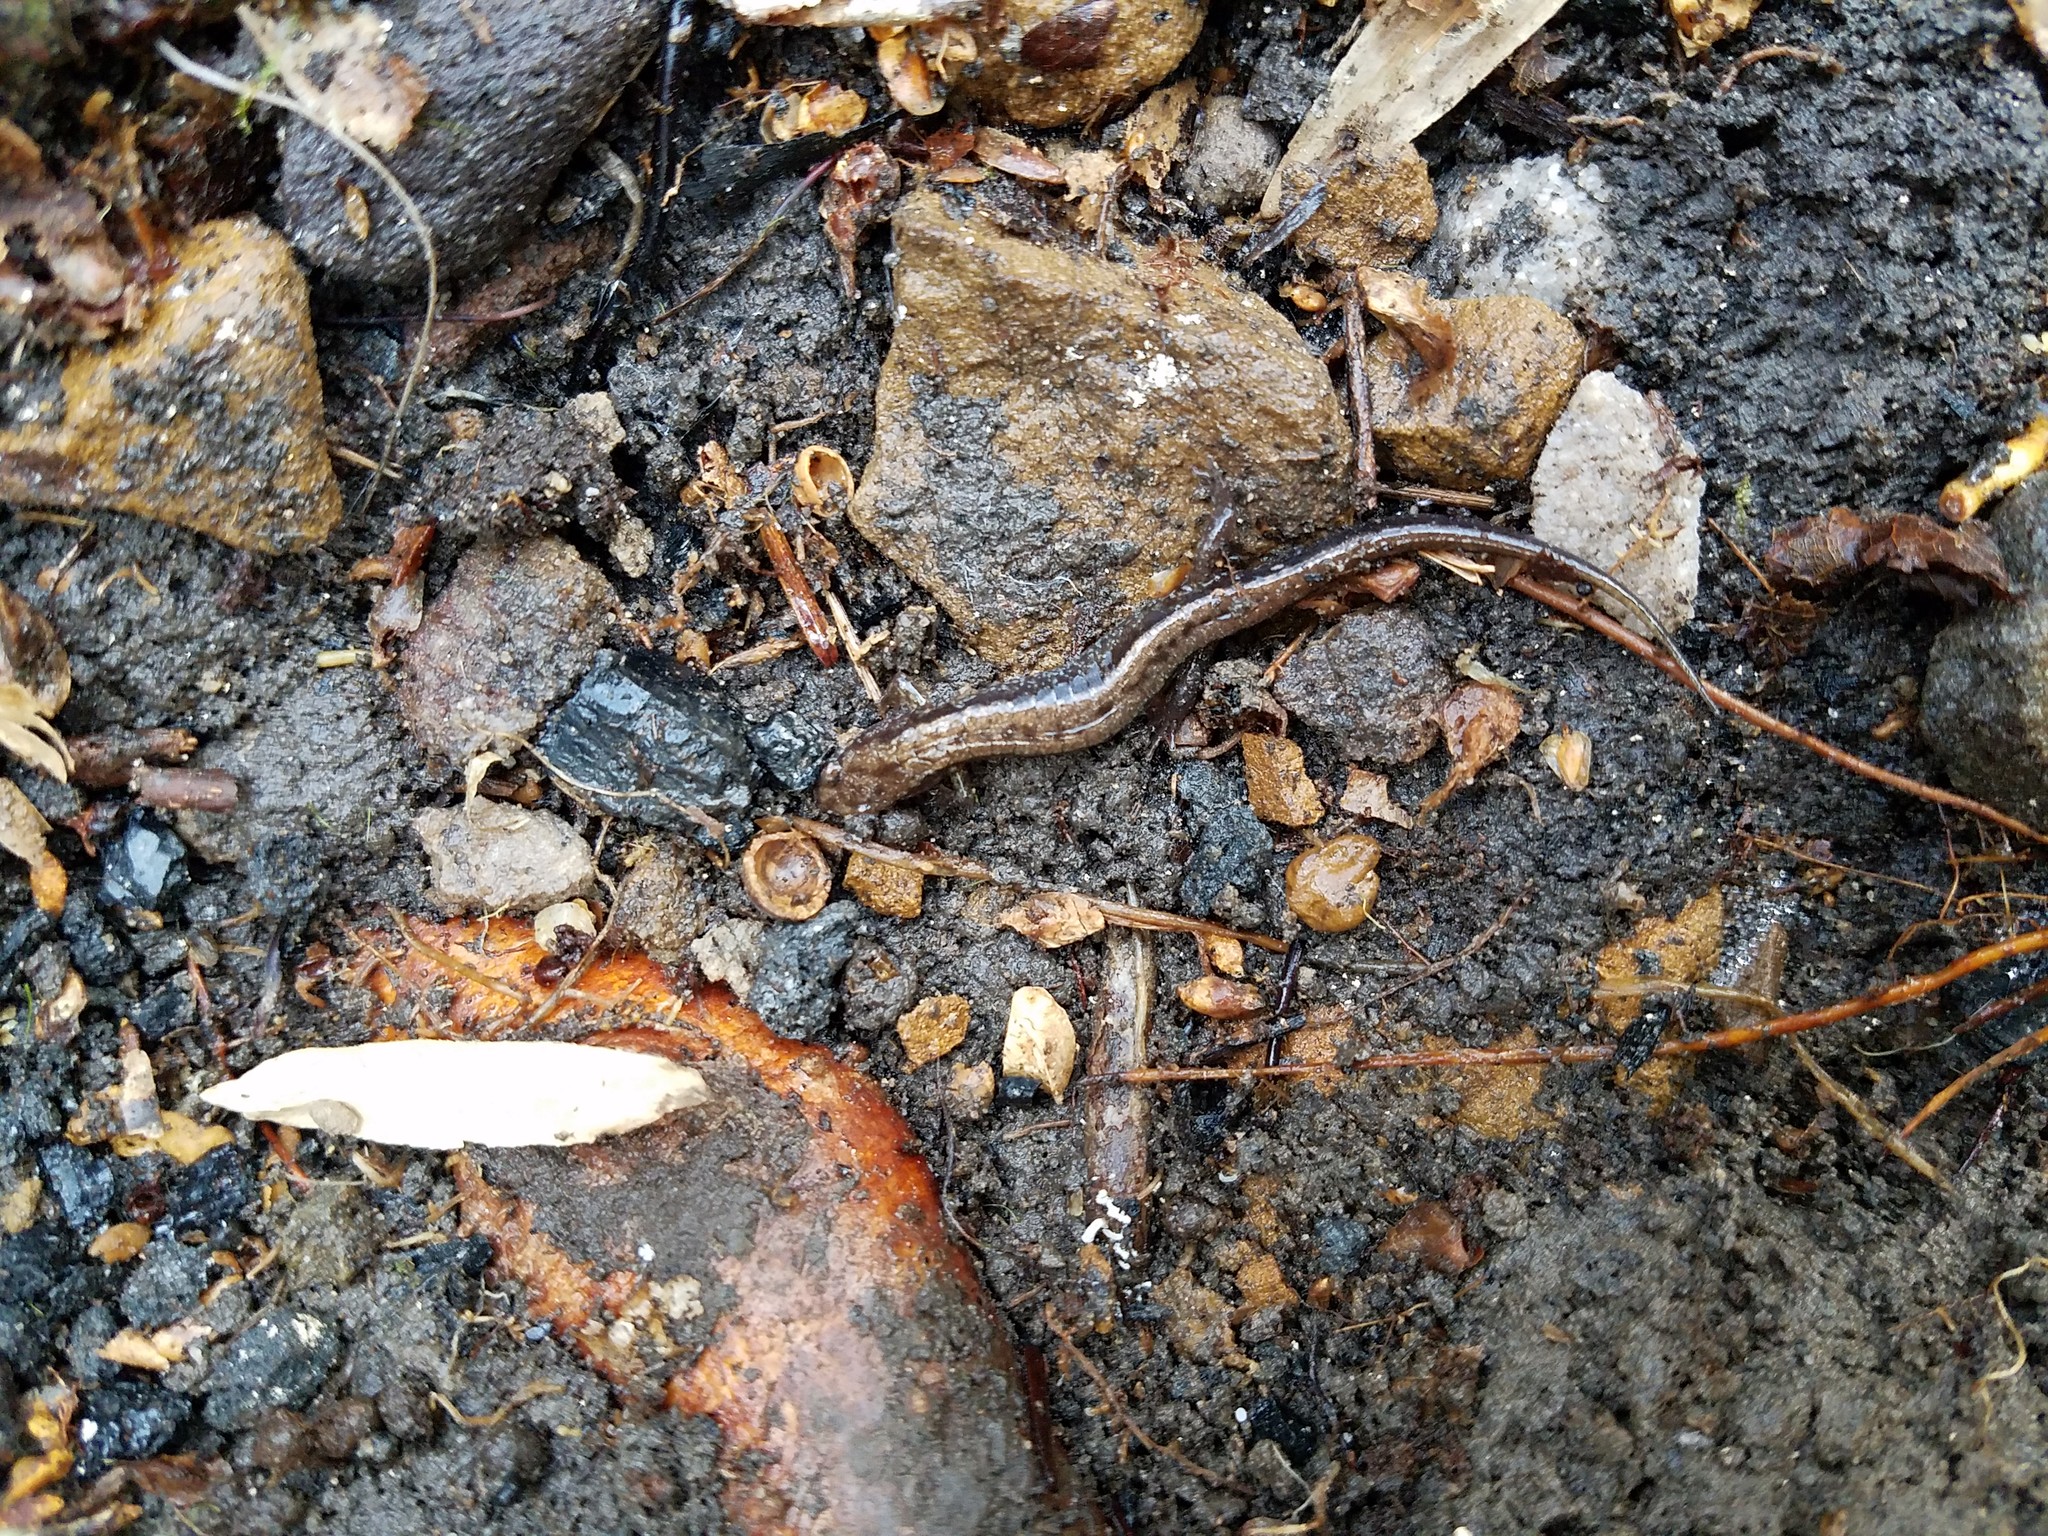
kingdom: Animalia
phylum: Chordata
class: Amphibia
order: Caudata
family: Plethodontidae
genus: Desmognathus
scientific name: Desmognathus ochrophaeus
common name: Allegheny mountain dusky salamander
